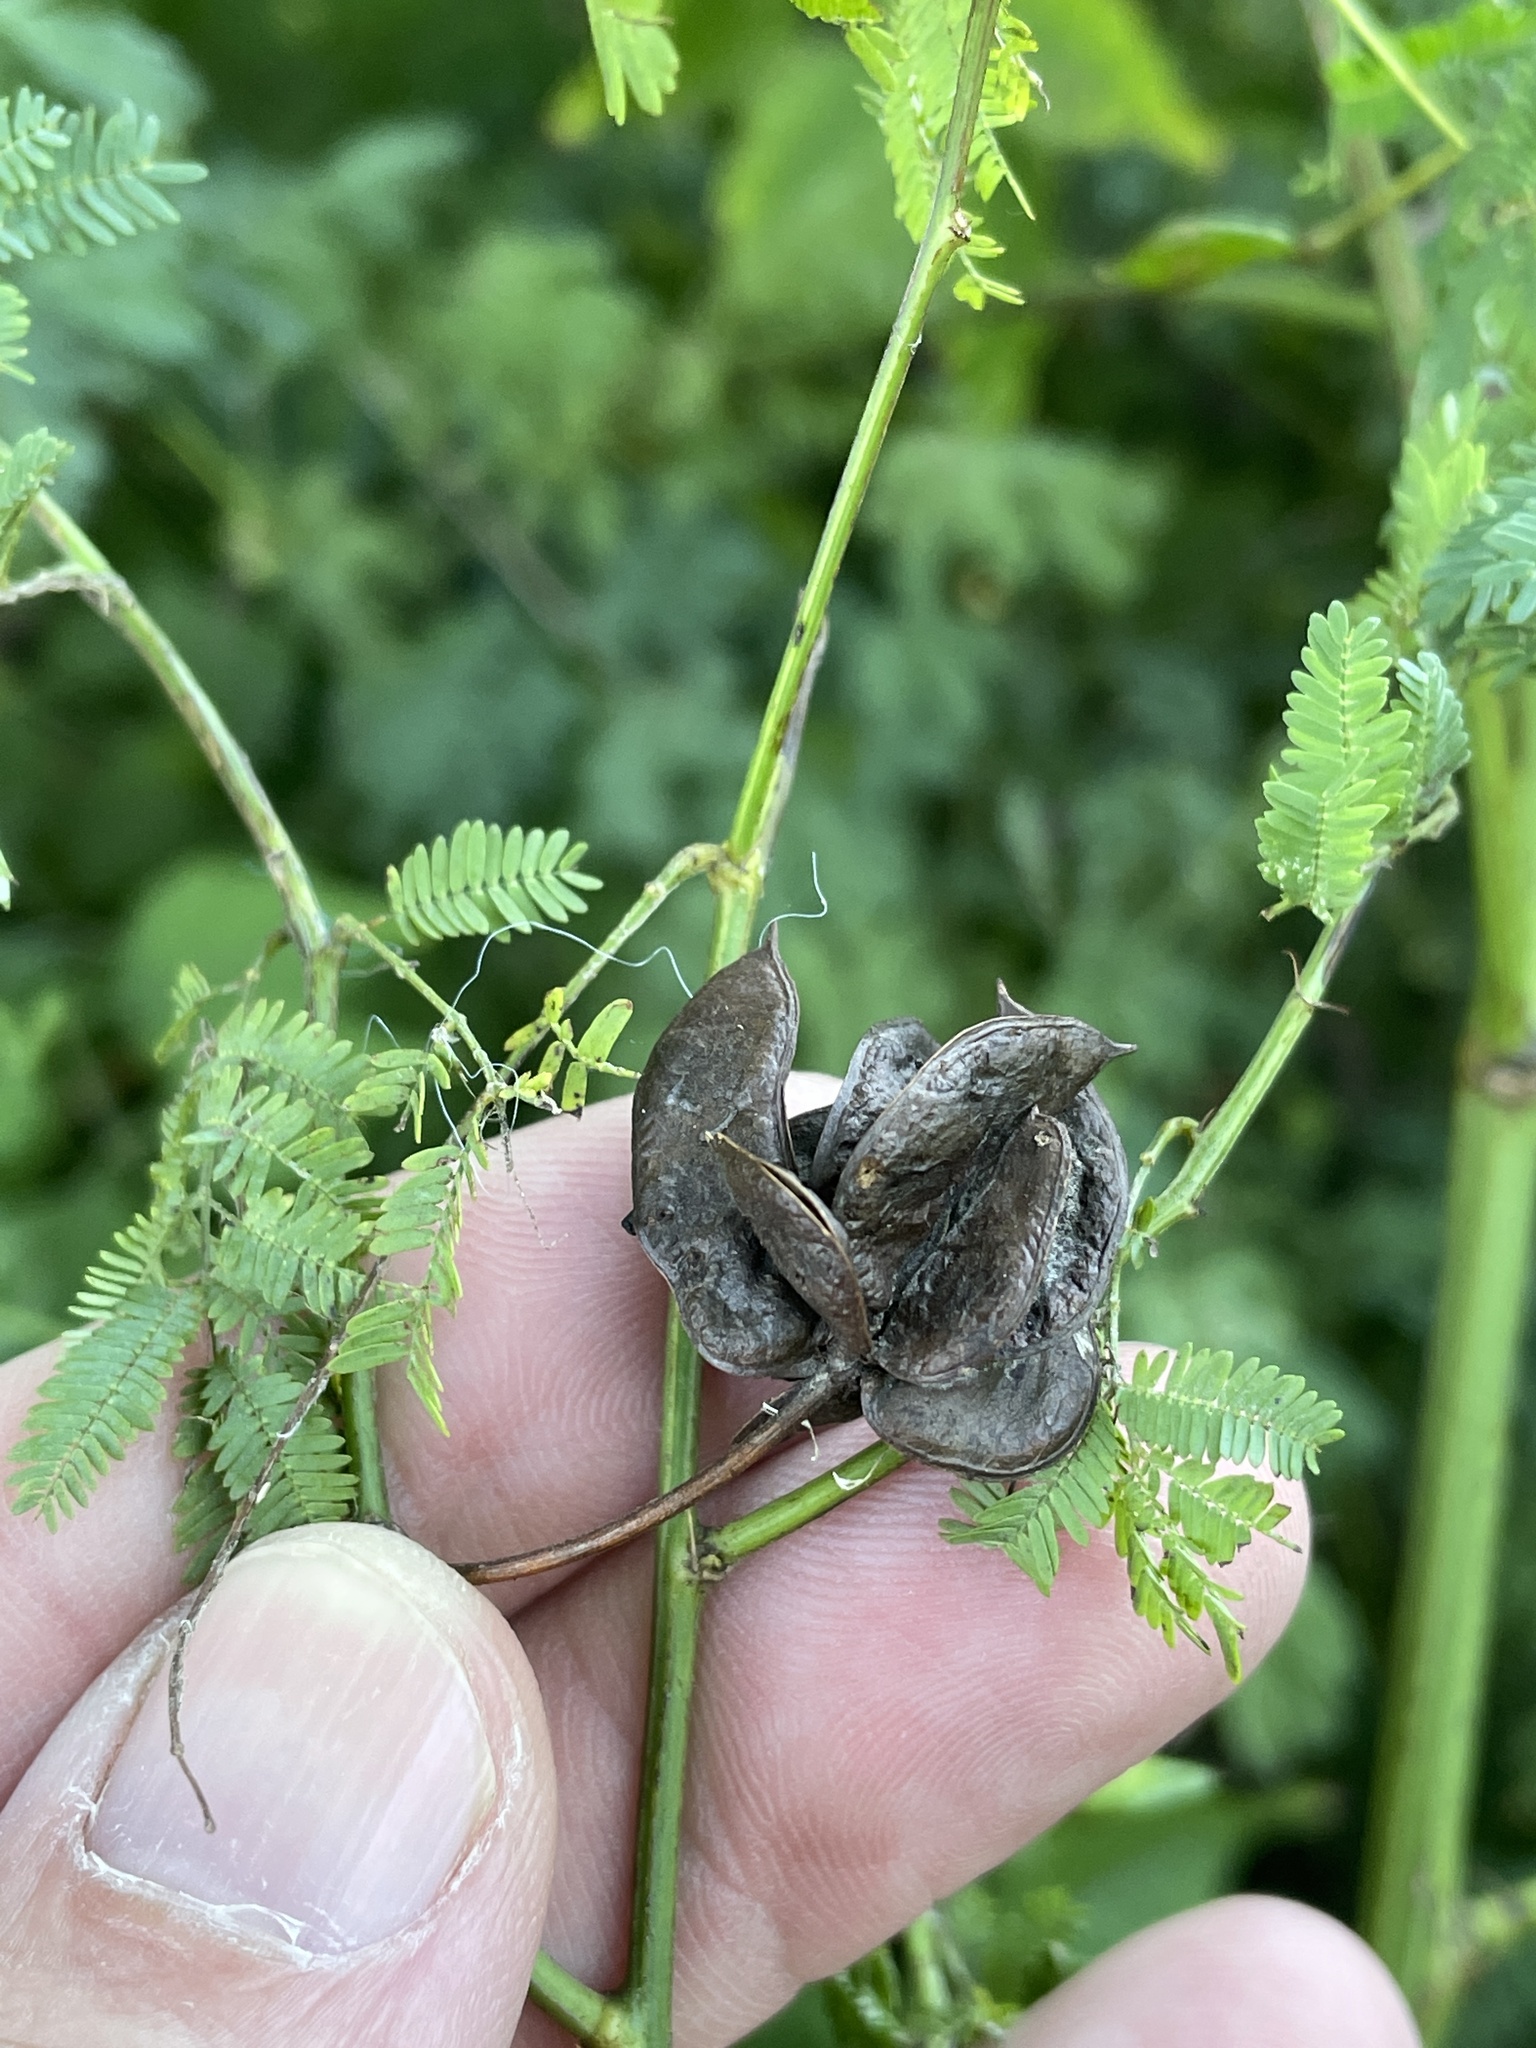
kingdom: Plantae
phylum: Tracheophyta
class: Magnoliopsida
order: Fabales
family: Fabaceae
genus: Desmanthus
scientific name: Desmanthus illinoensis
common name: Illinois bundle-flower
